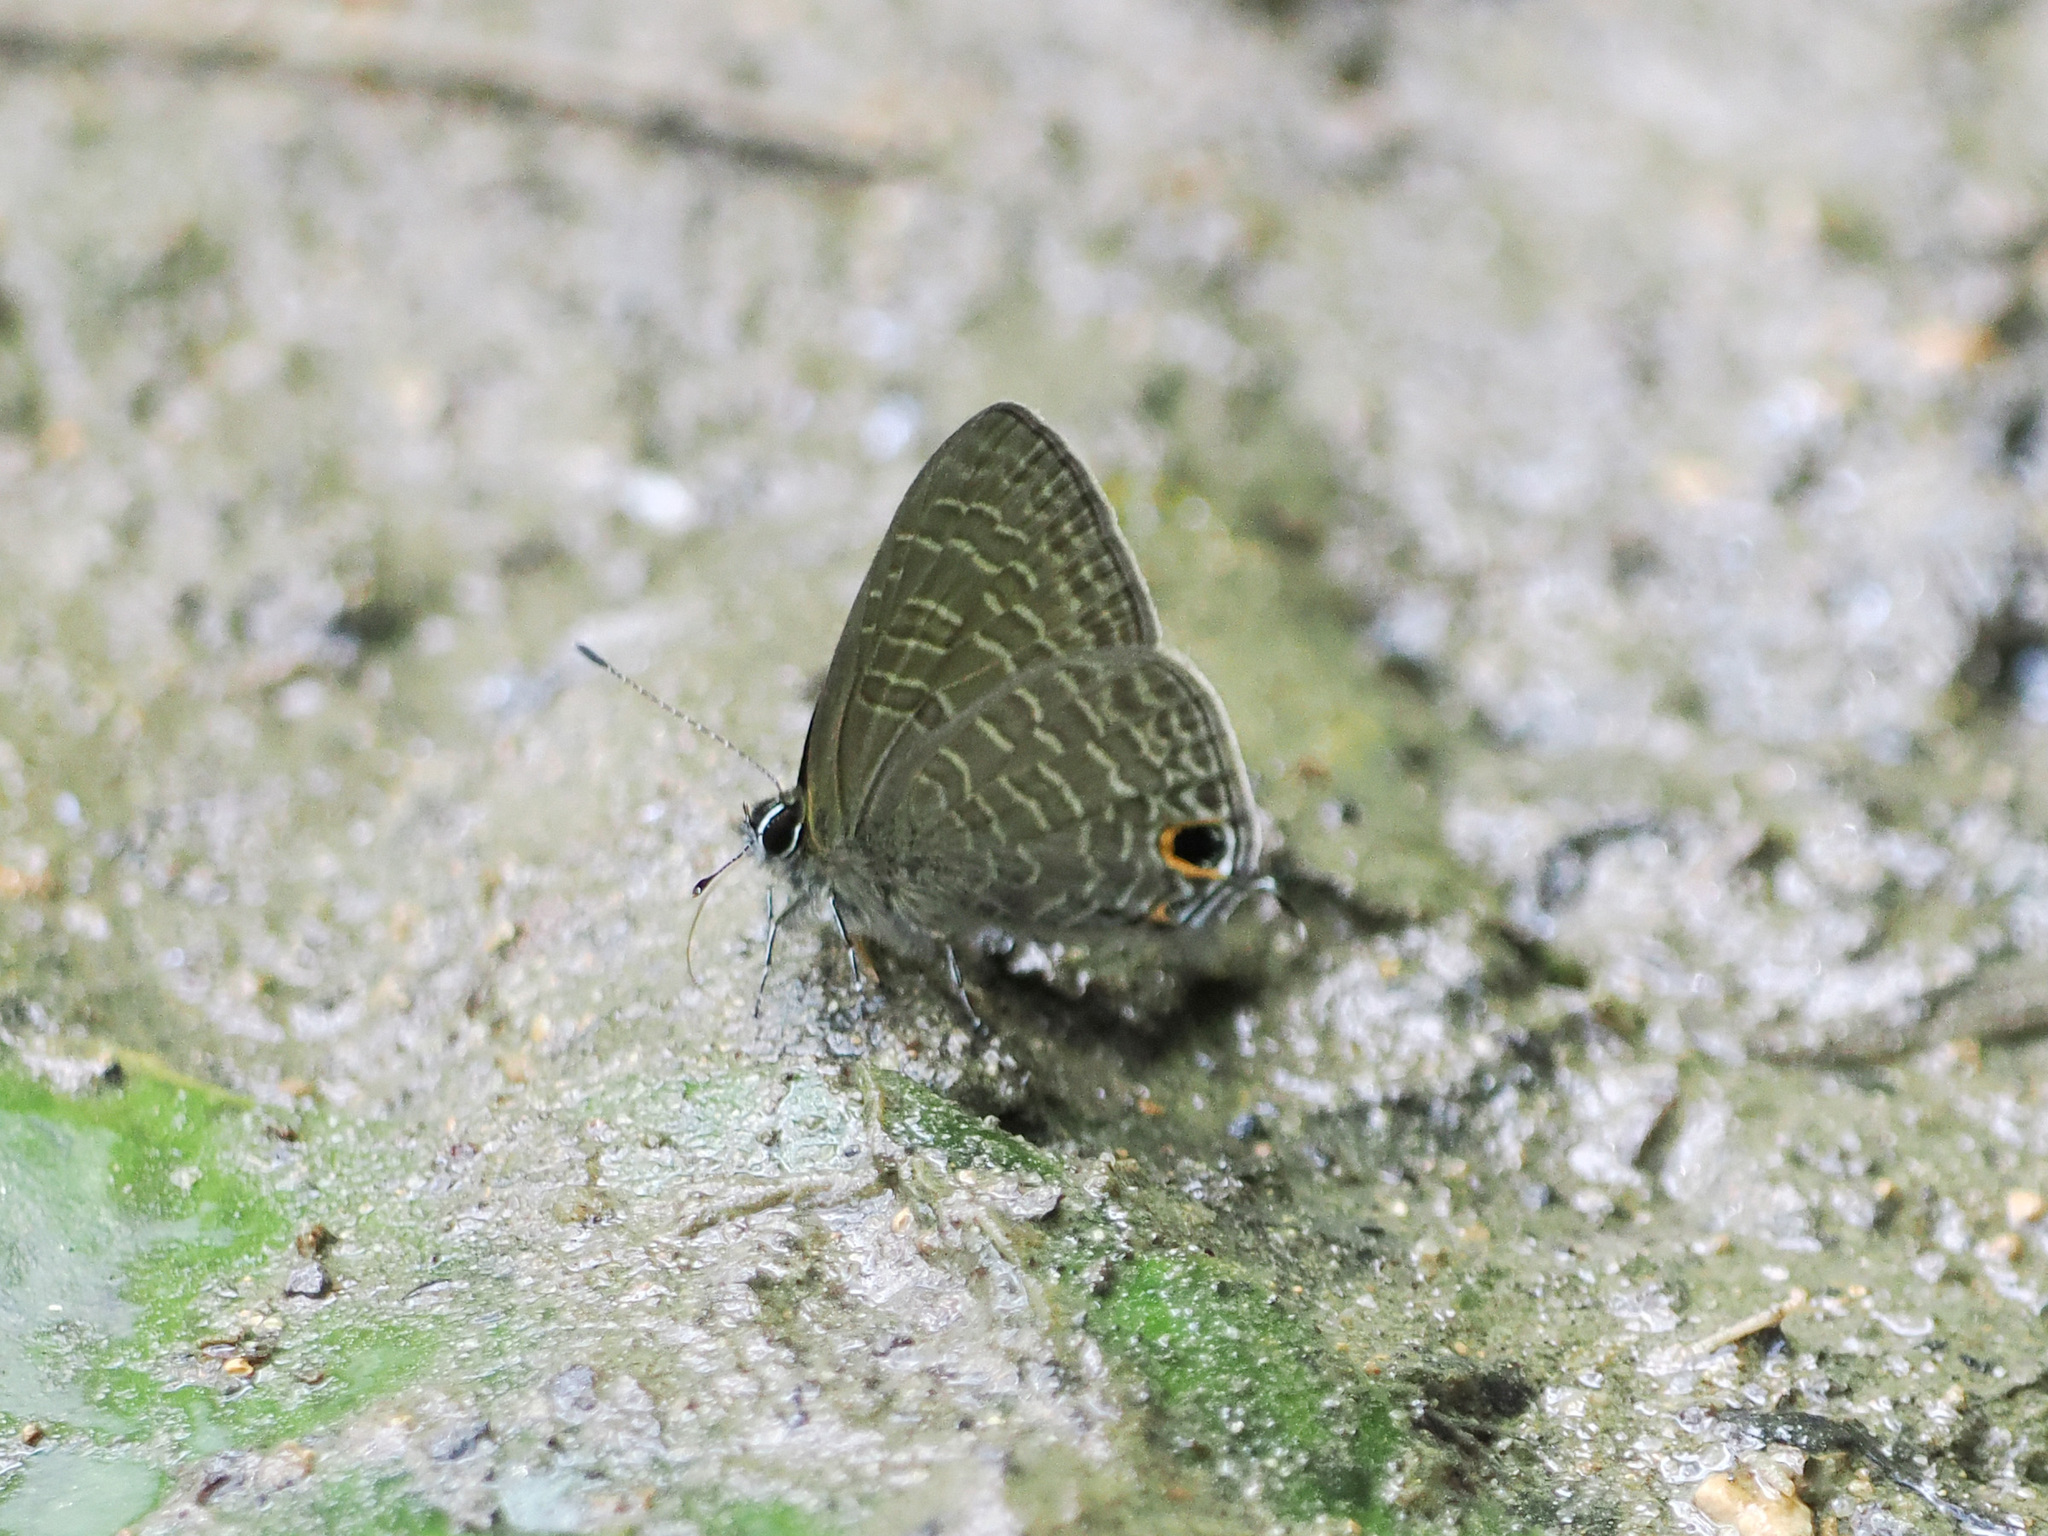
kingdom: Animalia
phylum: Arthropoda
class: Insecta
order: Lepidoptera
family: Lycaenidae
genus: Ionolyce
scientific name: Ionolyce helicon
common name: Pointed line blue
